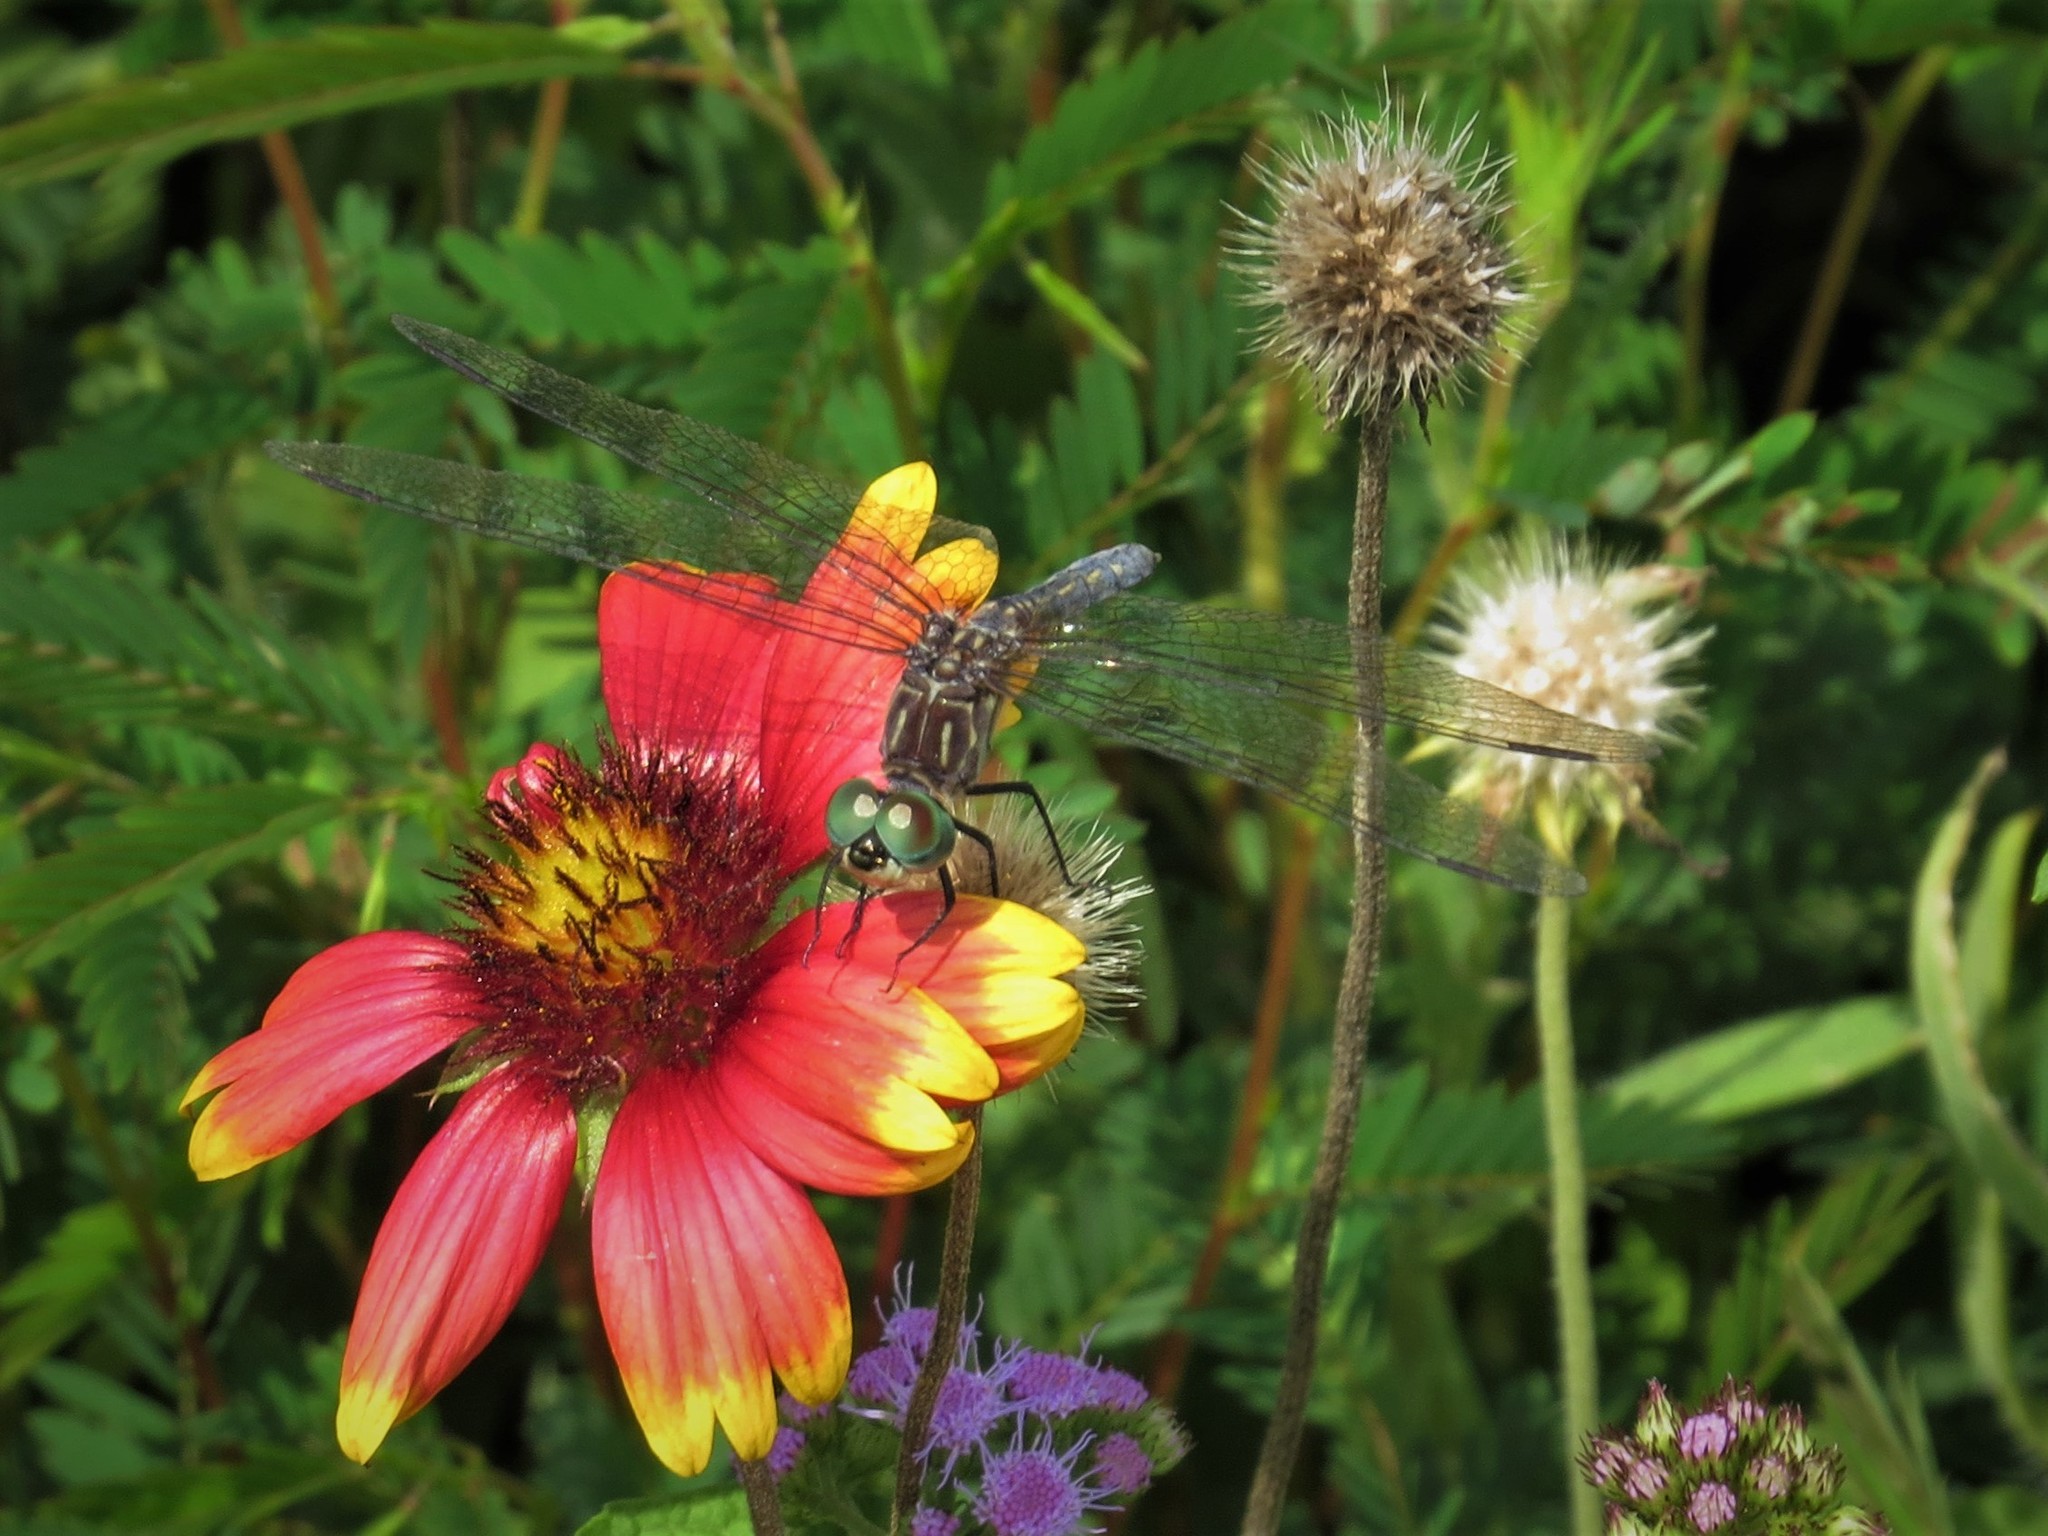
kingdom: Animalia
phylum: Arthropoda
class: Insecta
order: Odonata
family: Libellulidae
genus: Pachydiplax
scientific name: Pachydiplax longipennis
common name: Blue dasher
